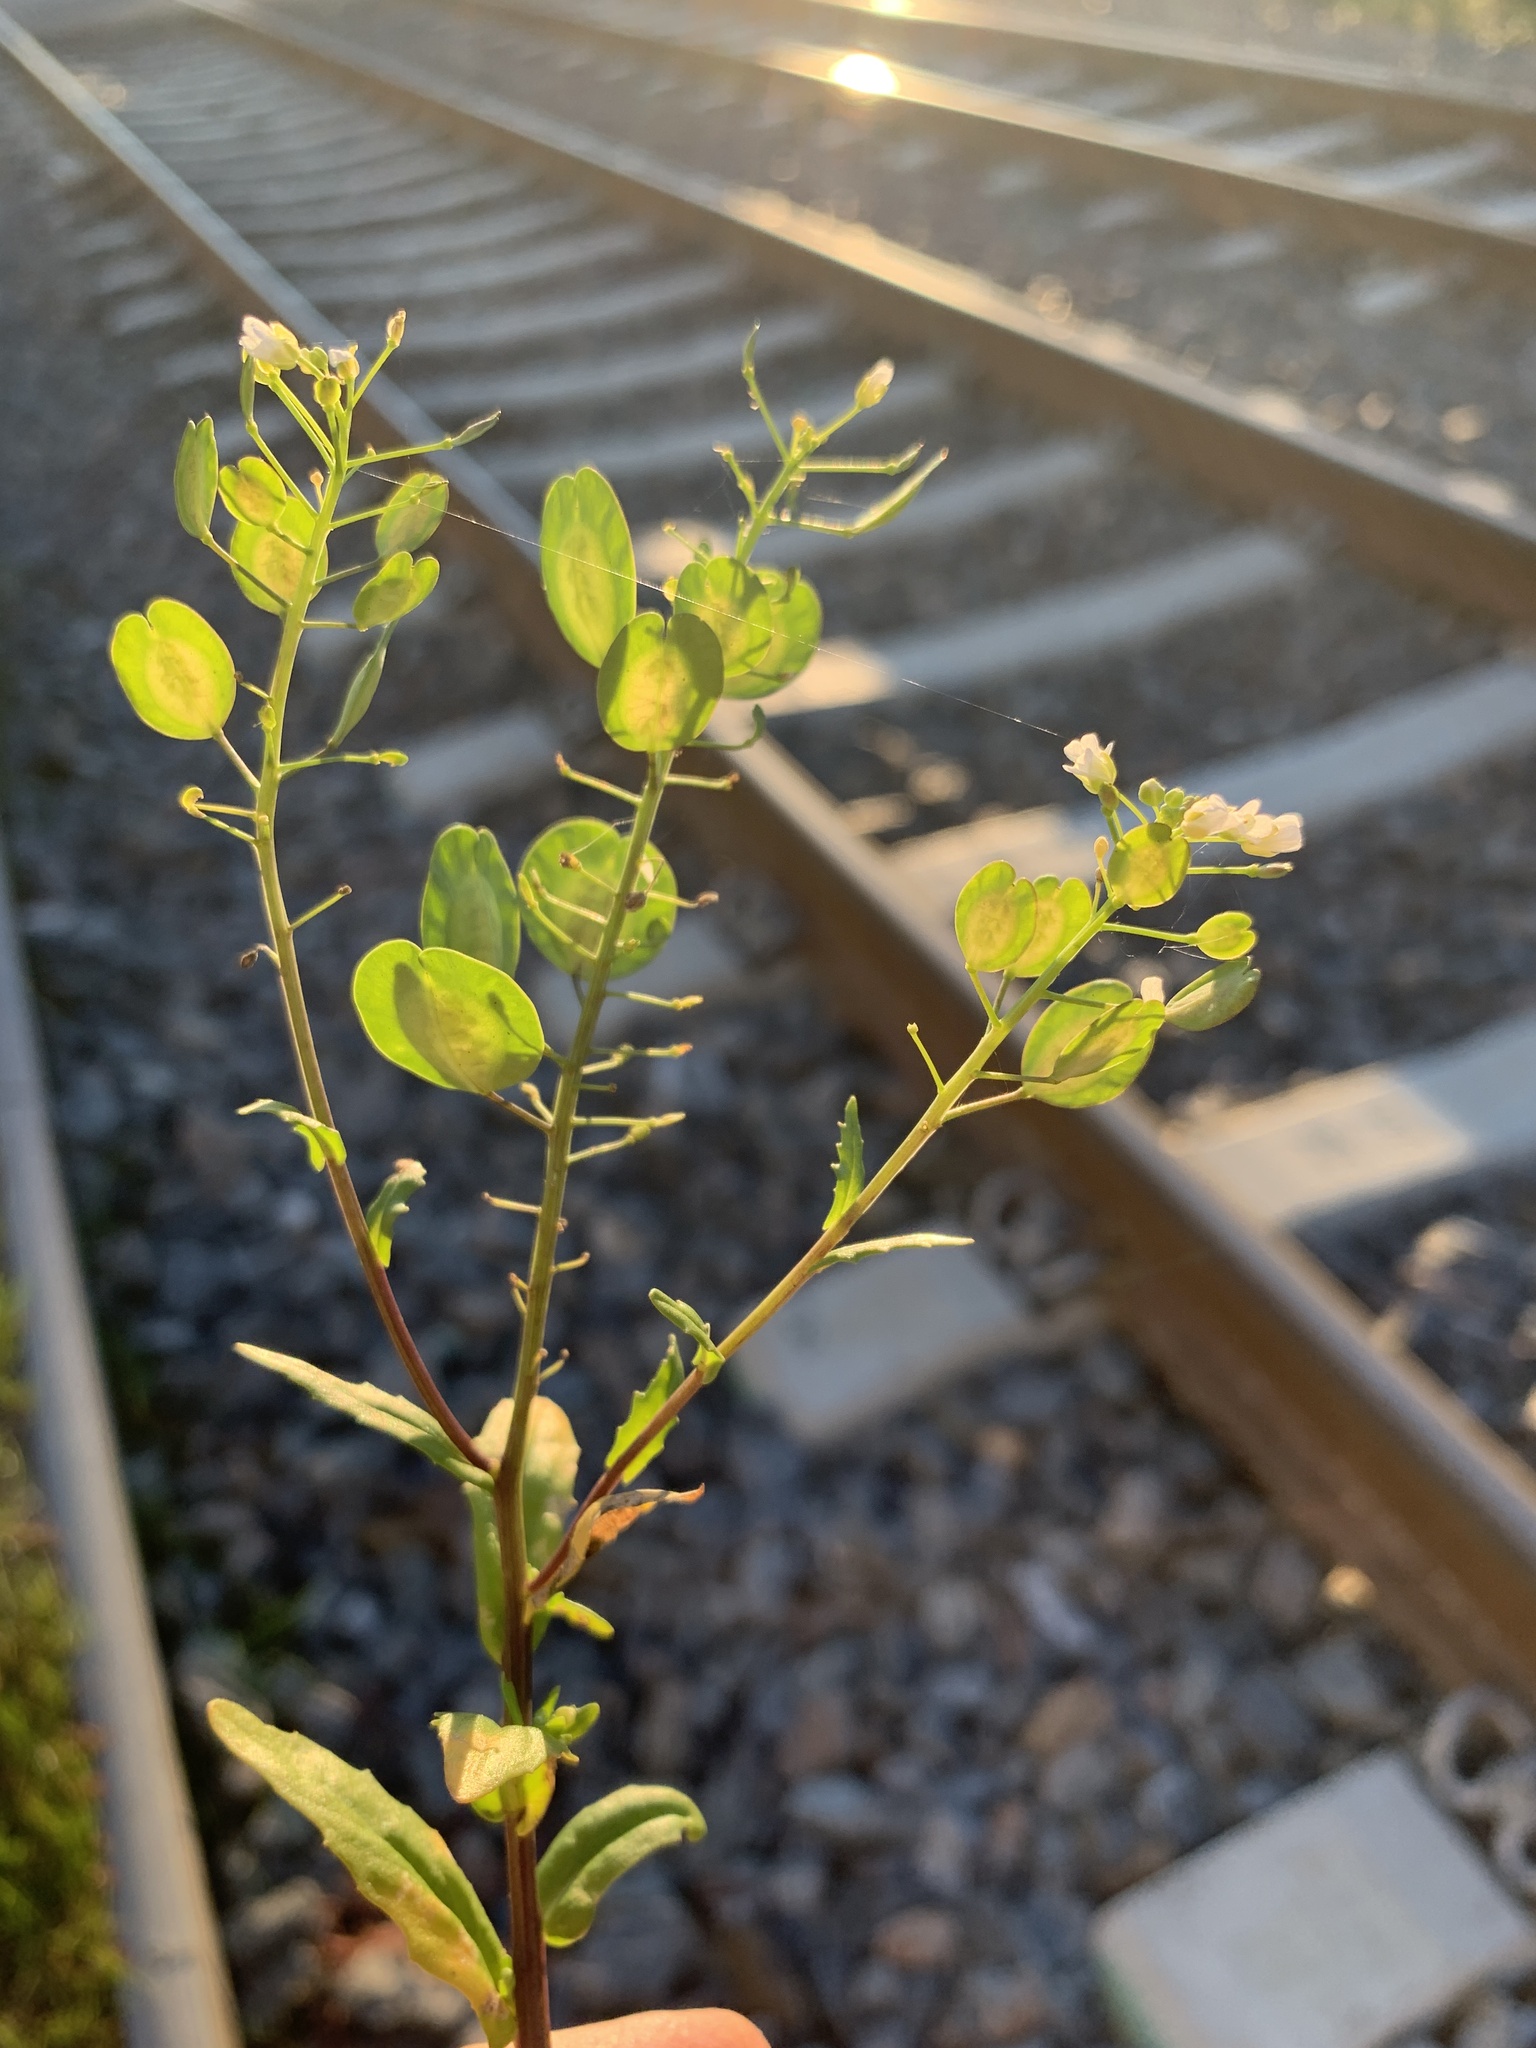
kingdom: Plantae
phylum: Tracheophyta
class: Magnoliopsida
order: Brassicales
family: Brassicaceae
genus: Thlaspi
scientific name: Thlaspi arvense
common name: Field pennycress
